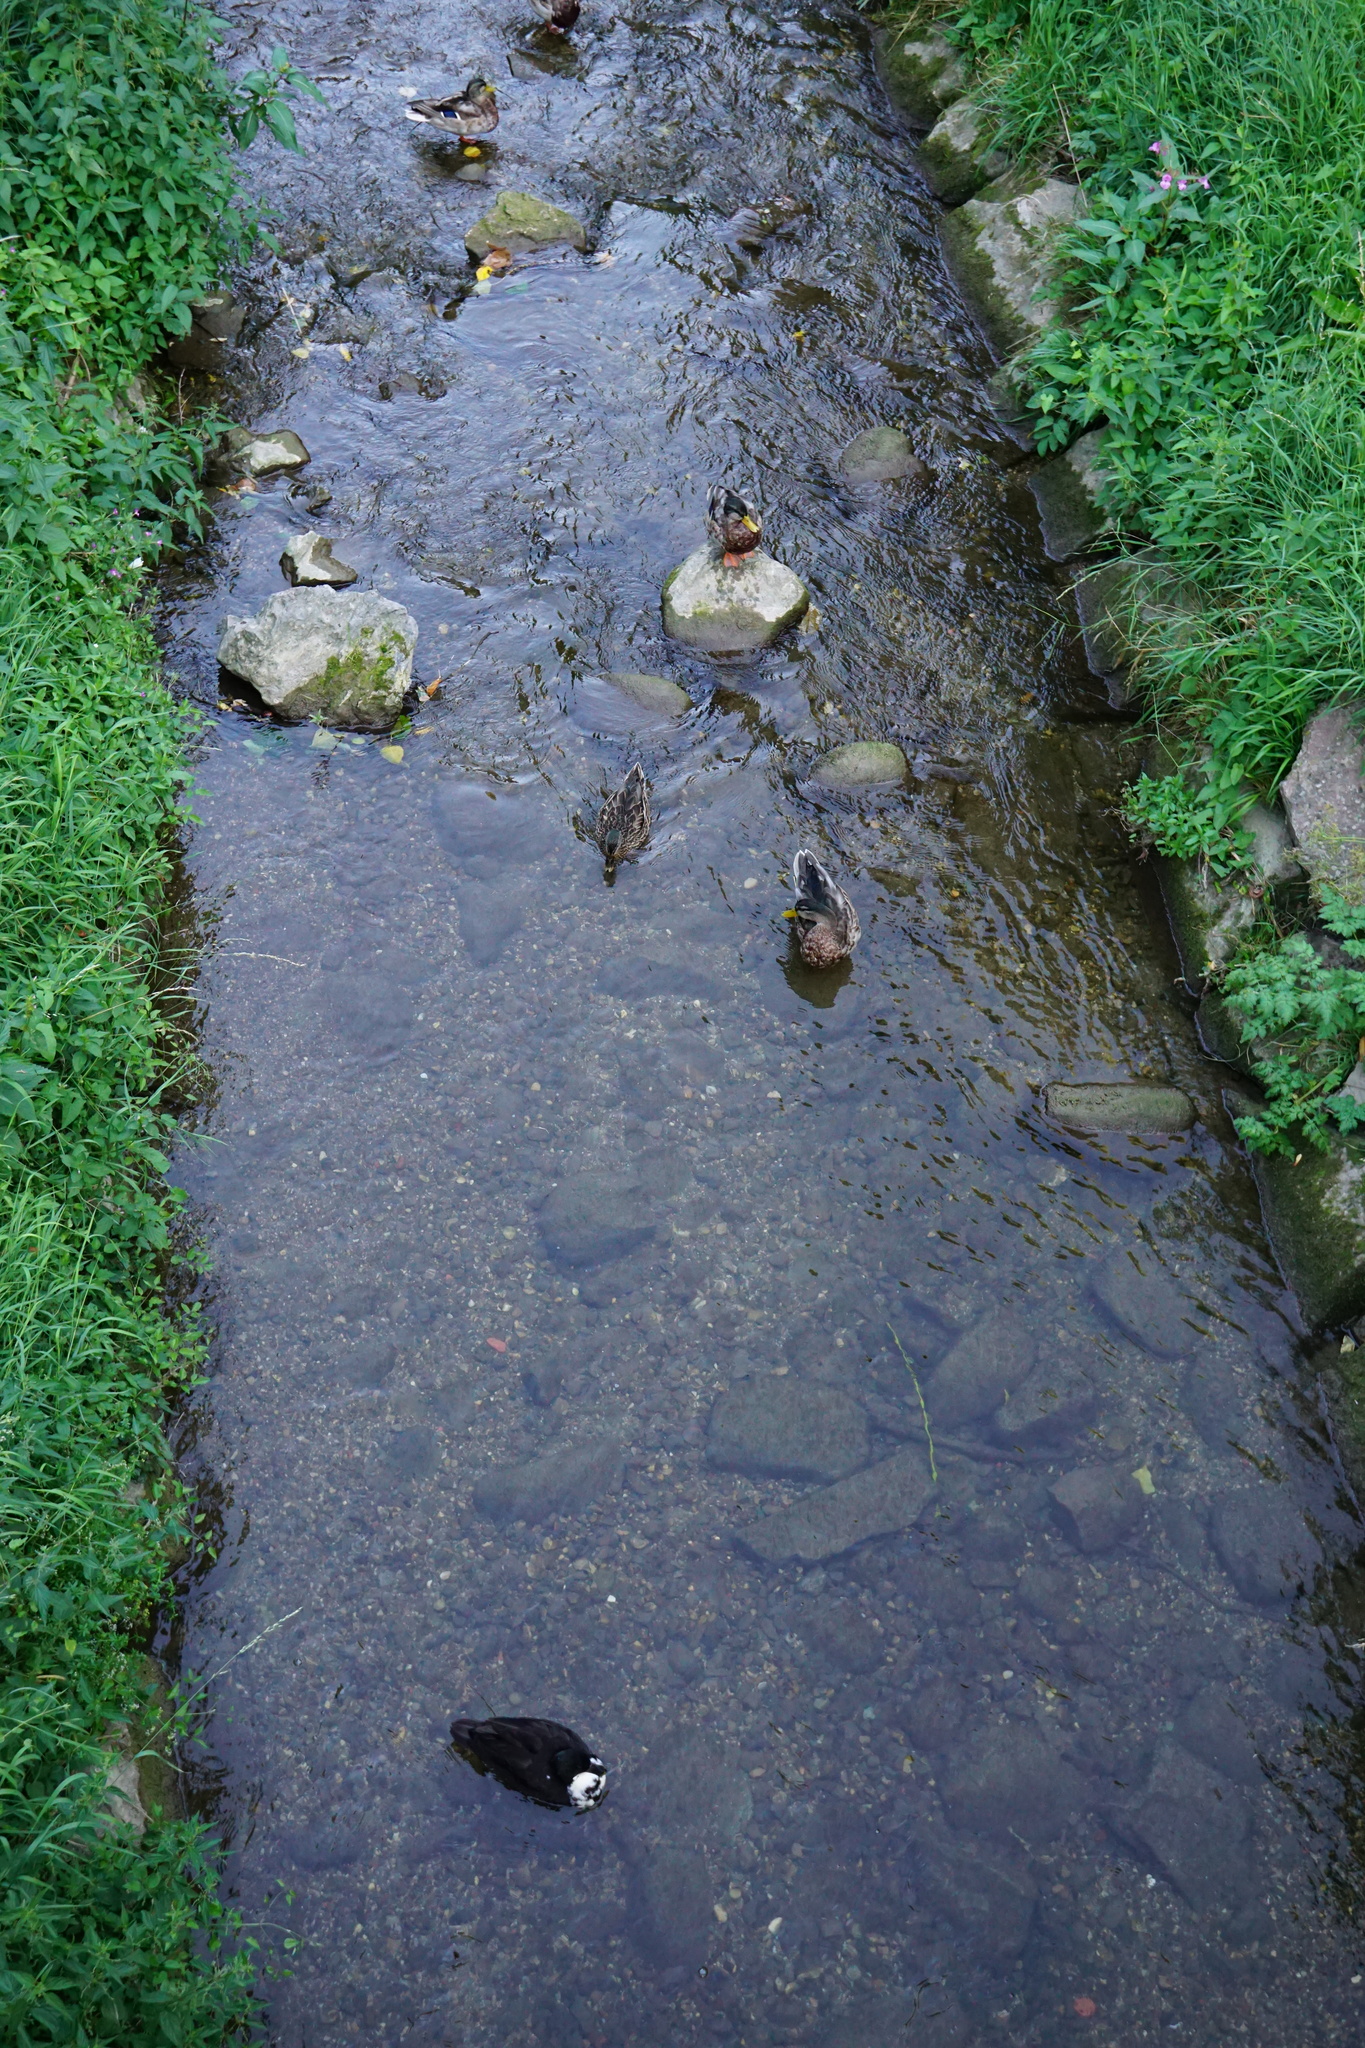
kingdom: Animalia
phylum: Chordata
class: Aves
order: Anseriformes
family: Anatidae
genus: Anas
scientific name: Anas platyrhynchos
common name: Mallard
